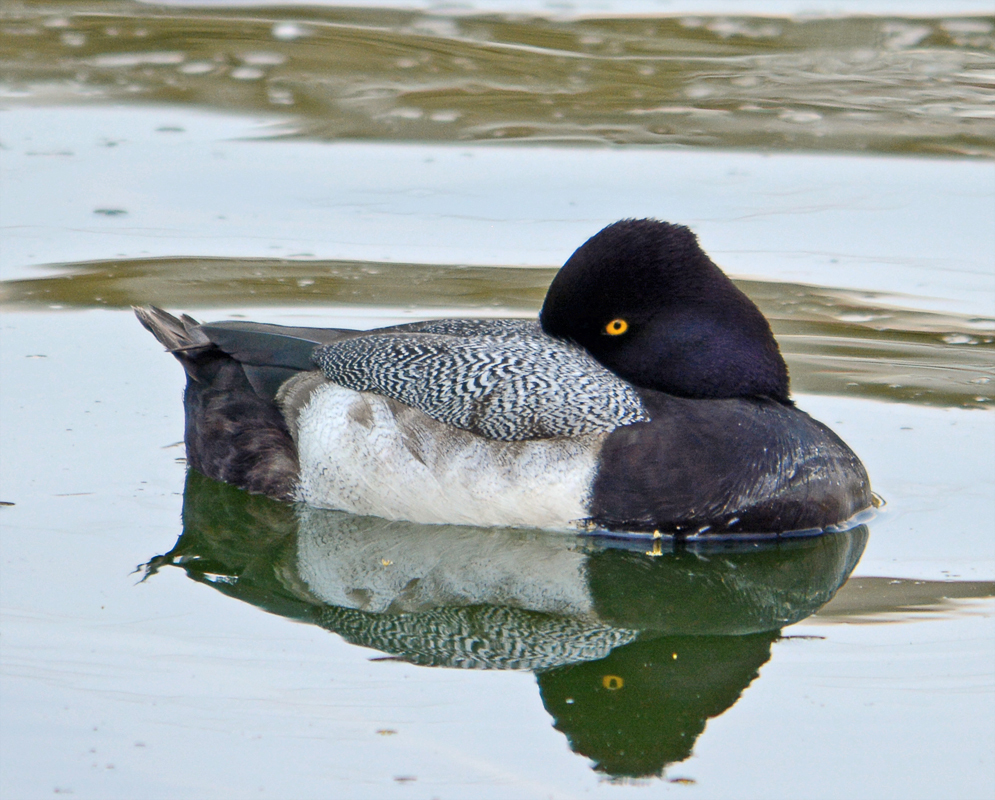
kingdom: Animalia
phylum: Chordata
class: Aves
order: Anseriformes
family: Anatidae
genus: Aythya
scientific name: Aythya affinis
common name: Lesser scaup
